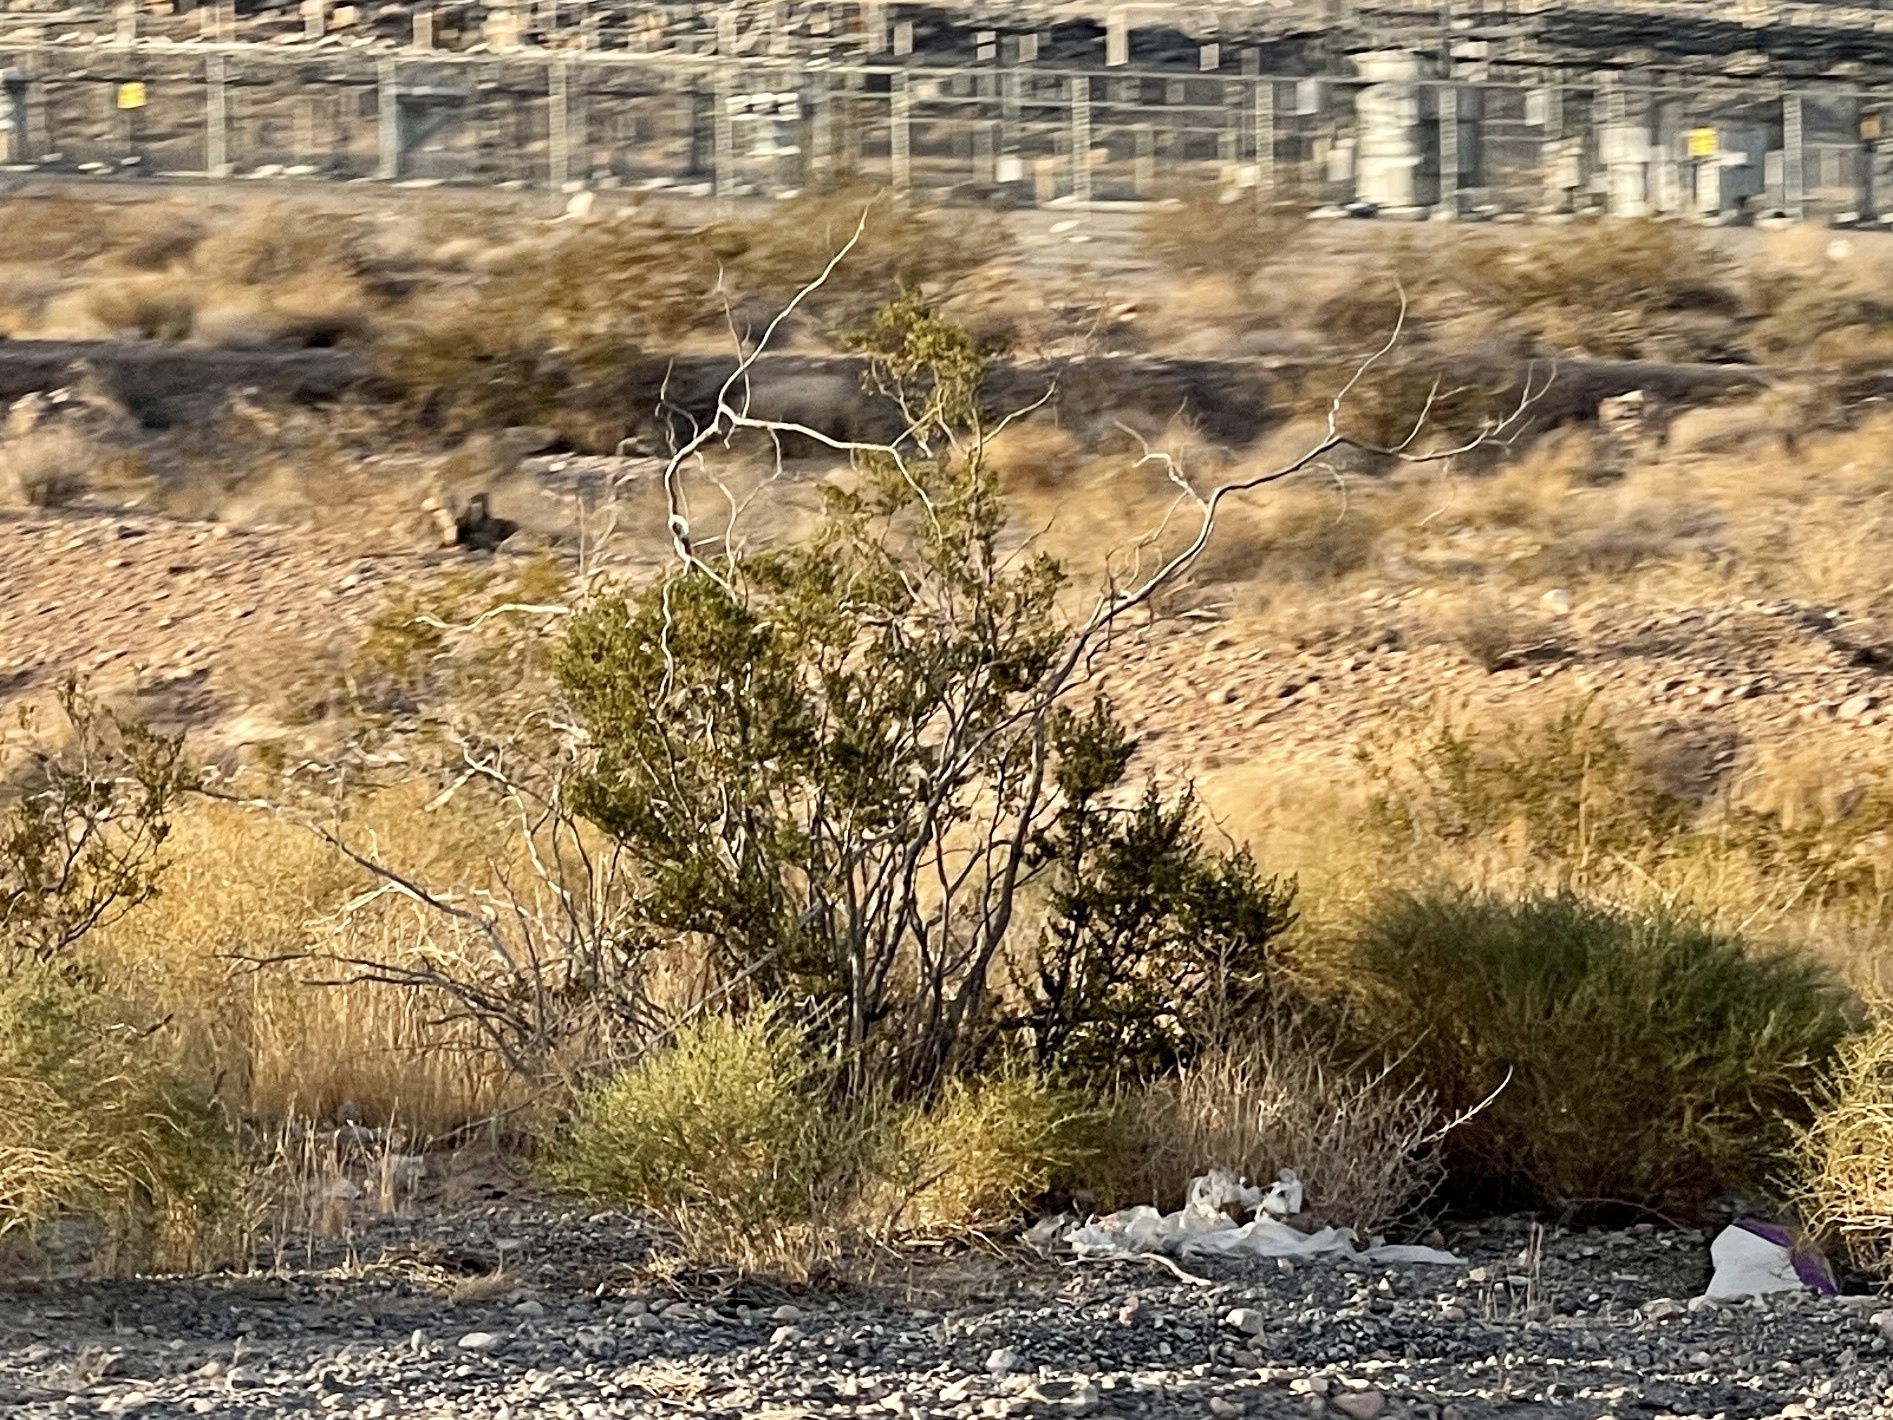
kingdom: Plantae
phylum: Tracheophyta
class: Magnoliopsida
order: Zygophyllales
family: Zygophyllaceae
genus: Larrea
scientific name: Larrea tridentata
